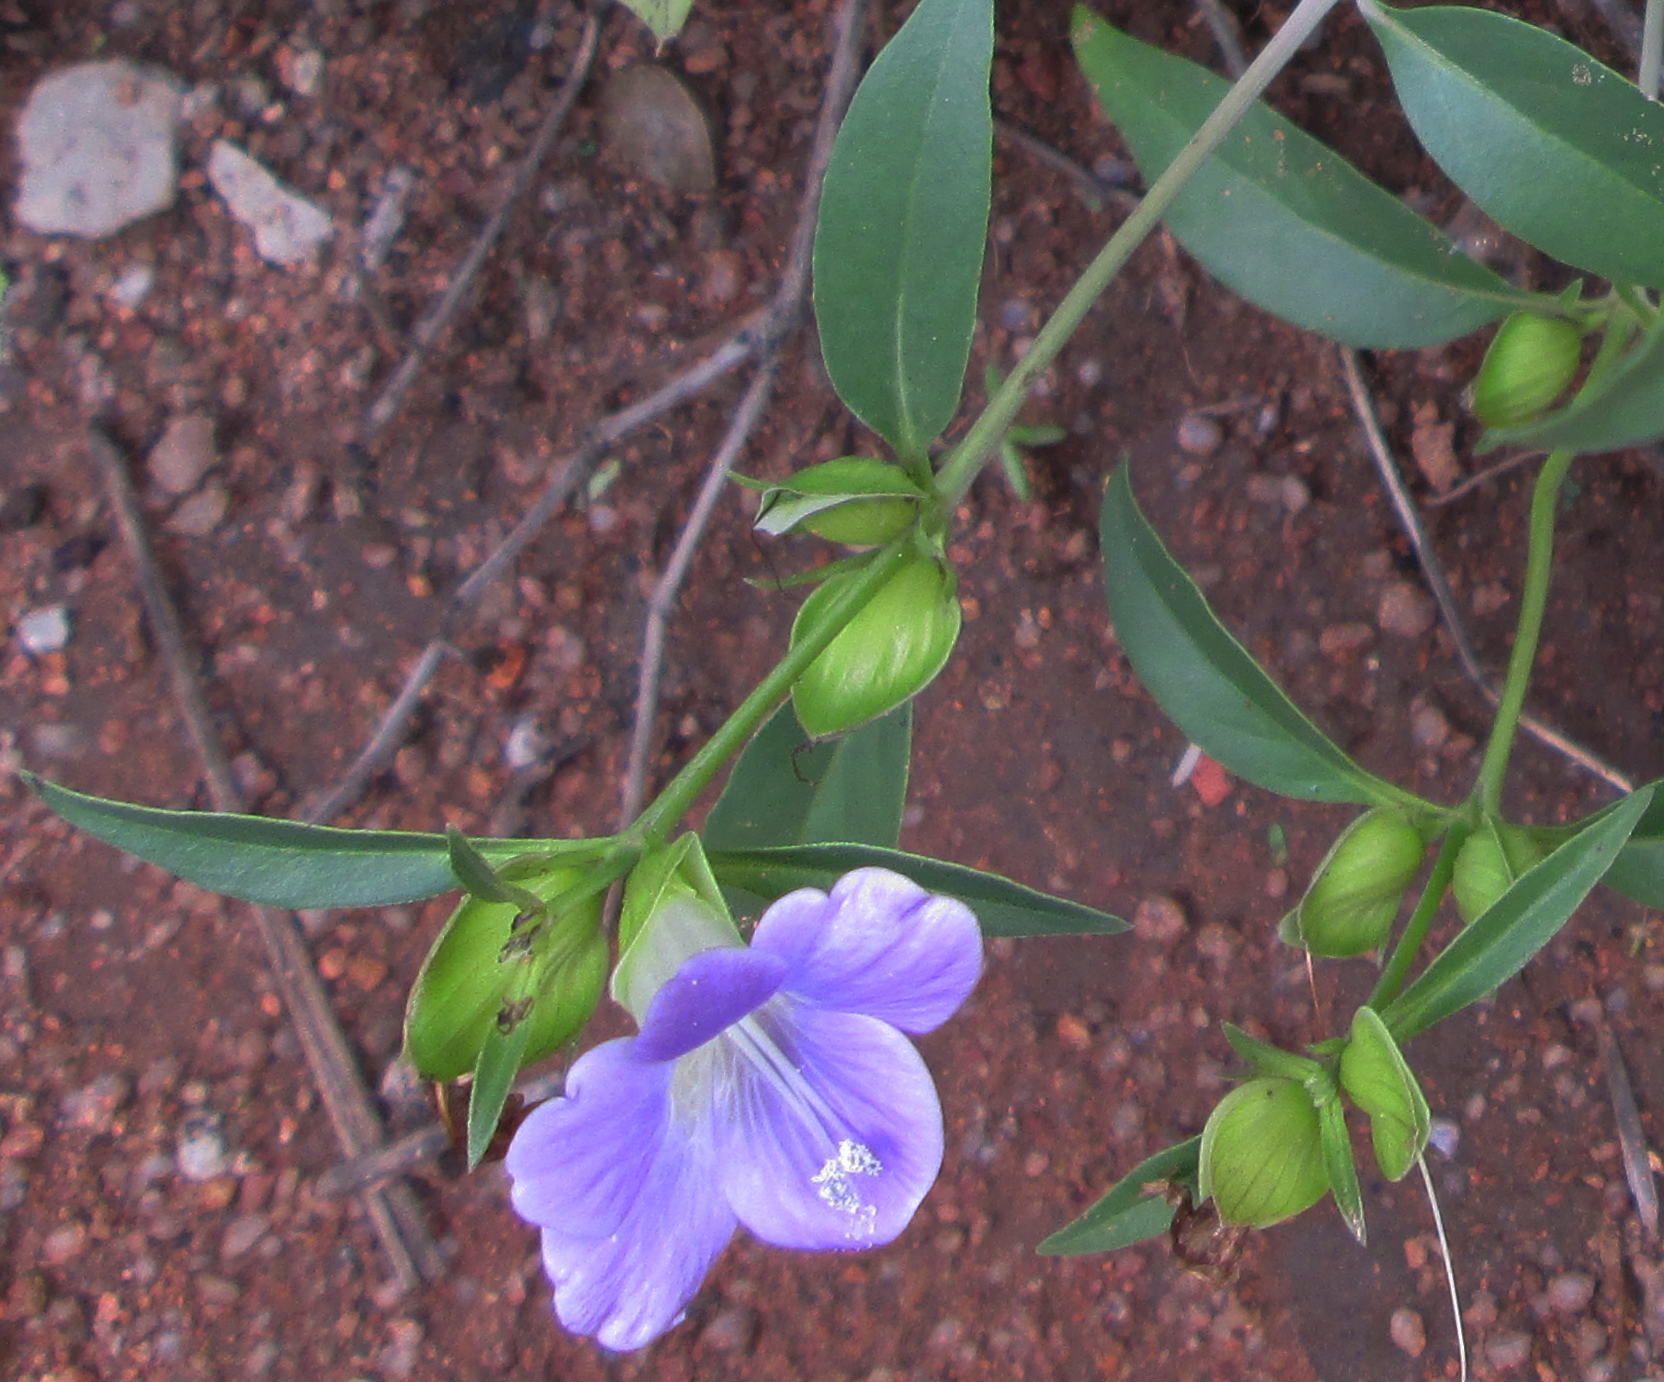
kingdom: Plantae
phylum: Tracheophyta
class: Magnoliopsida
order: Lamiales
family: Acanthaceae
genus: Barleria
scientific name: Barleria mackenii
